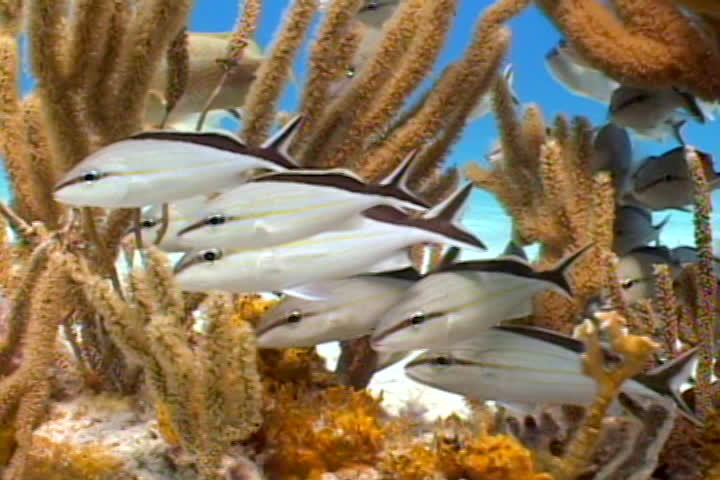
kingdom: Animalia
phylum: Chordata
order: Perciformes
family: Haemulidae
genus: Haemulon
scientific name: Haemulon melanurum
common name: Cottonwick
